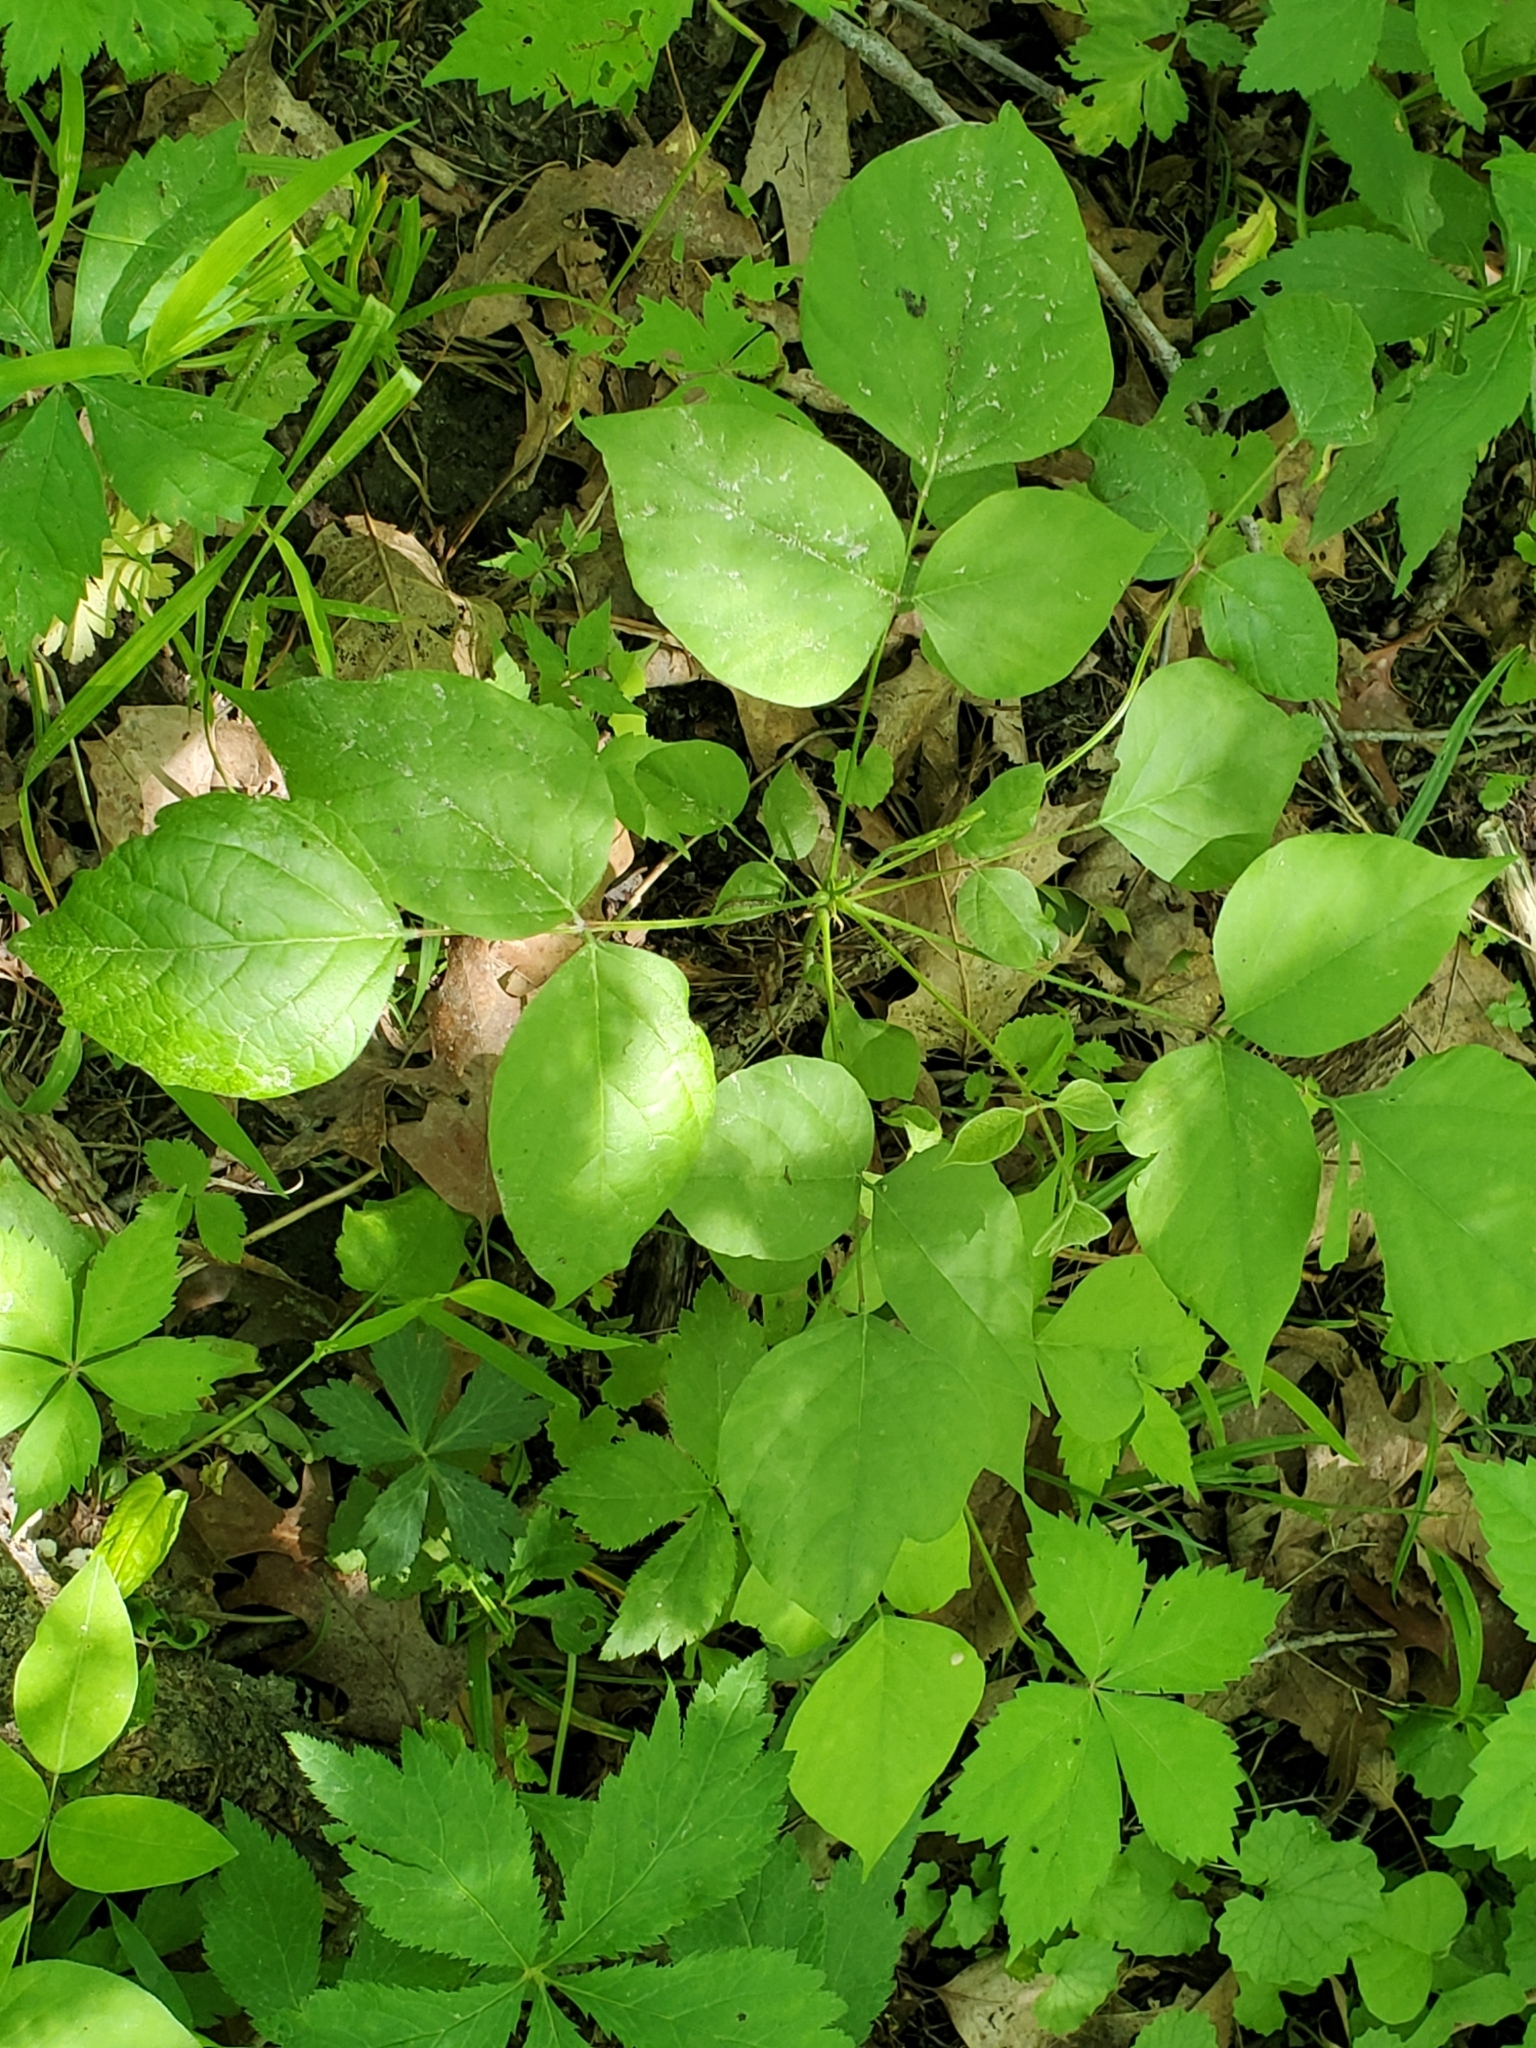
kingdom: Plantae
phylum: Tracheophyta
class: Magnoliopsida
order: Fabales
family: Fabaceae
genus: Hylodesmum
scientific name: Hylodesmum glutinosum
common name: Clustered-leaved tick-trefoil
